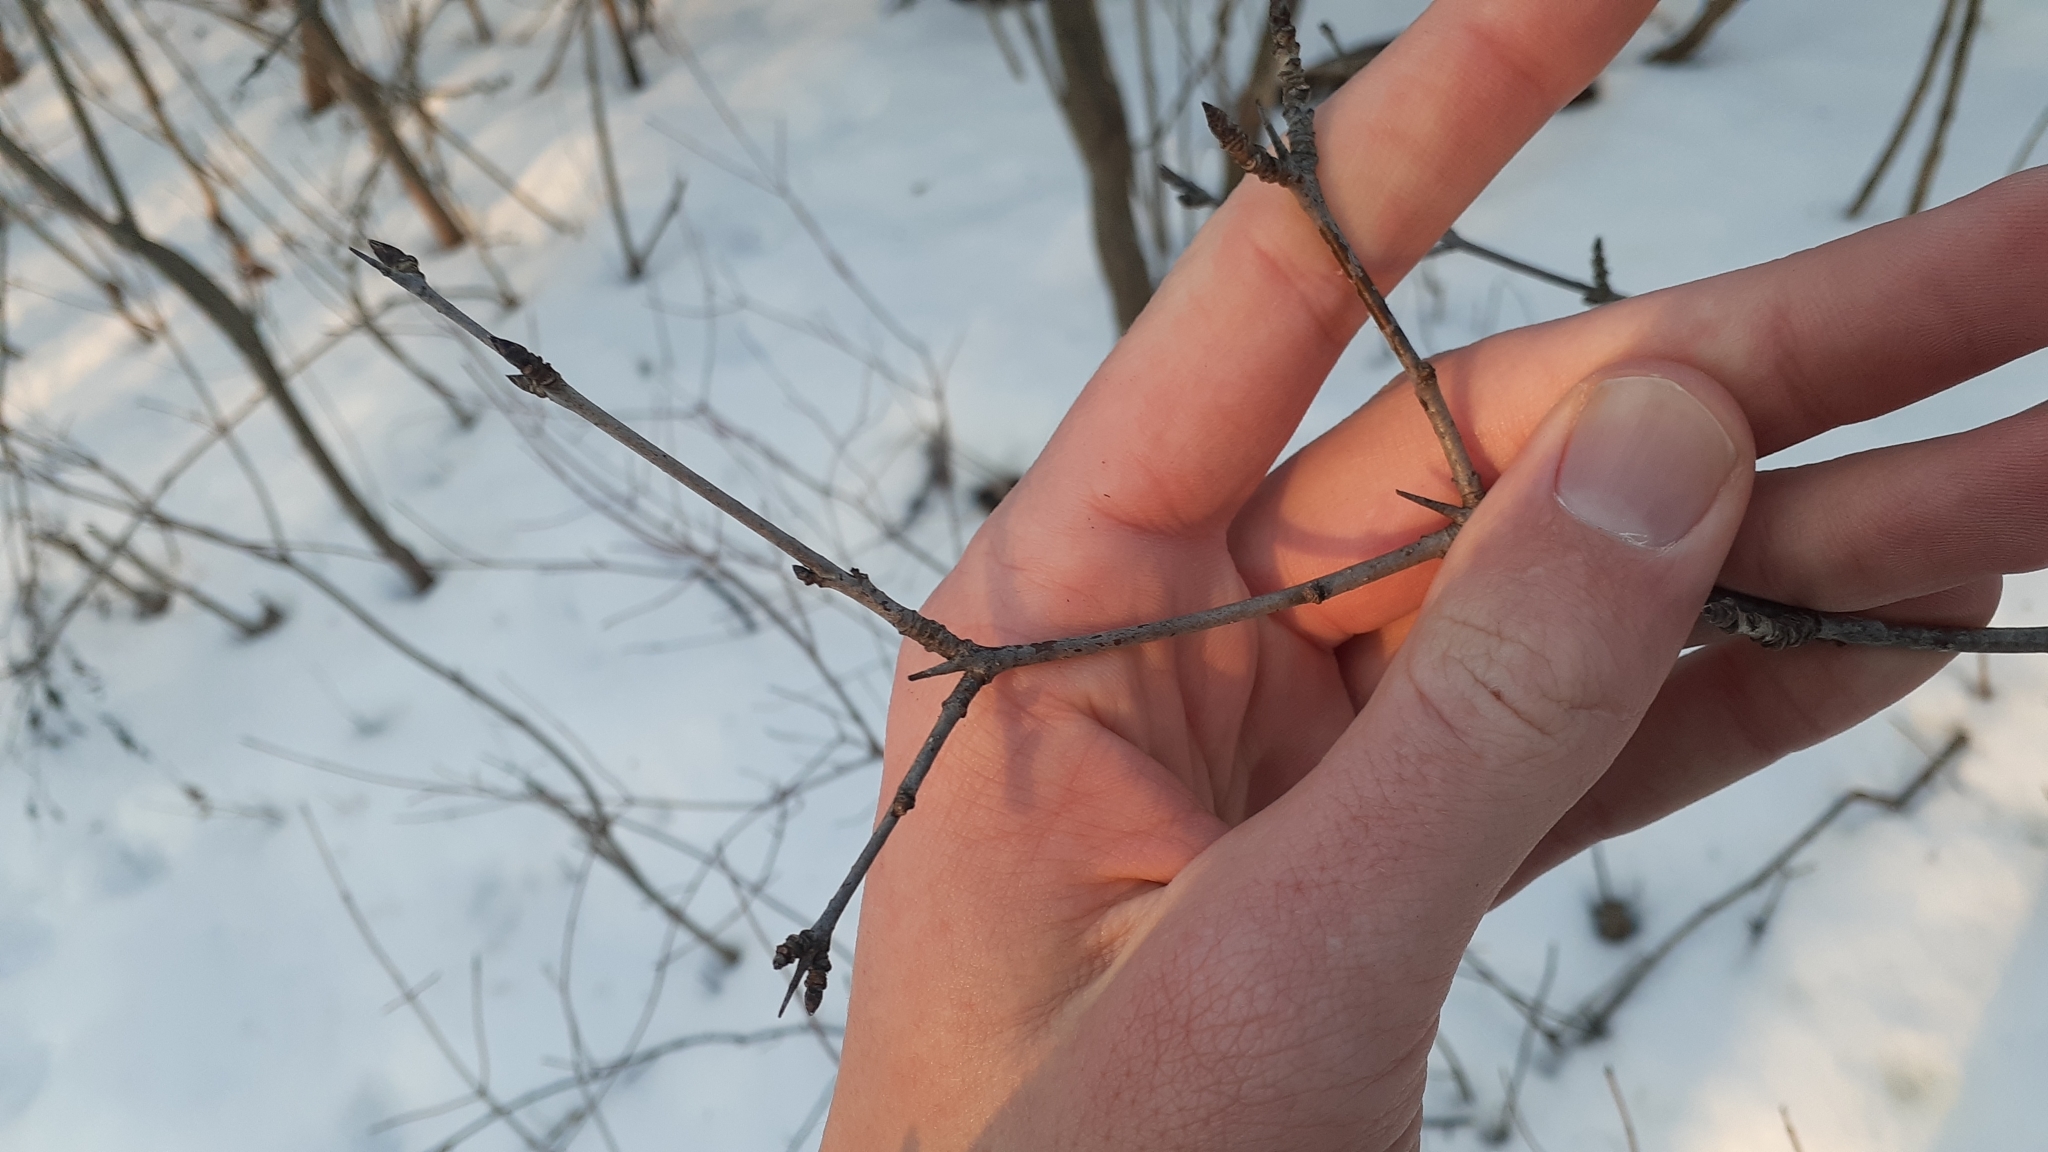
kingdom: Plantae
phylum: Tracheophyta
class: Magnoliopsida
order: Rosales
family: Rhamnaceae
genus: Rhamnus
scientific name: Rhamnus cathartica
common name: Common buckthorn
